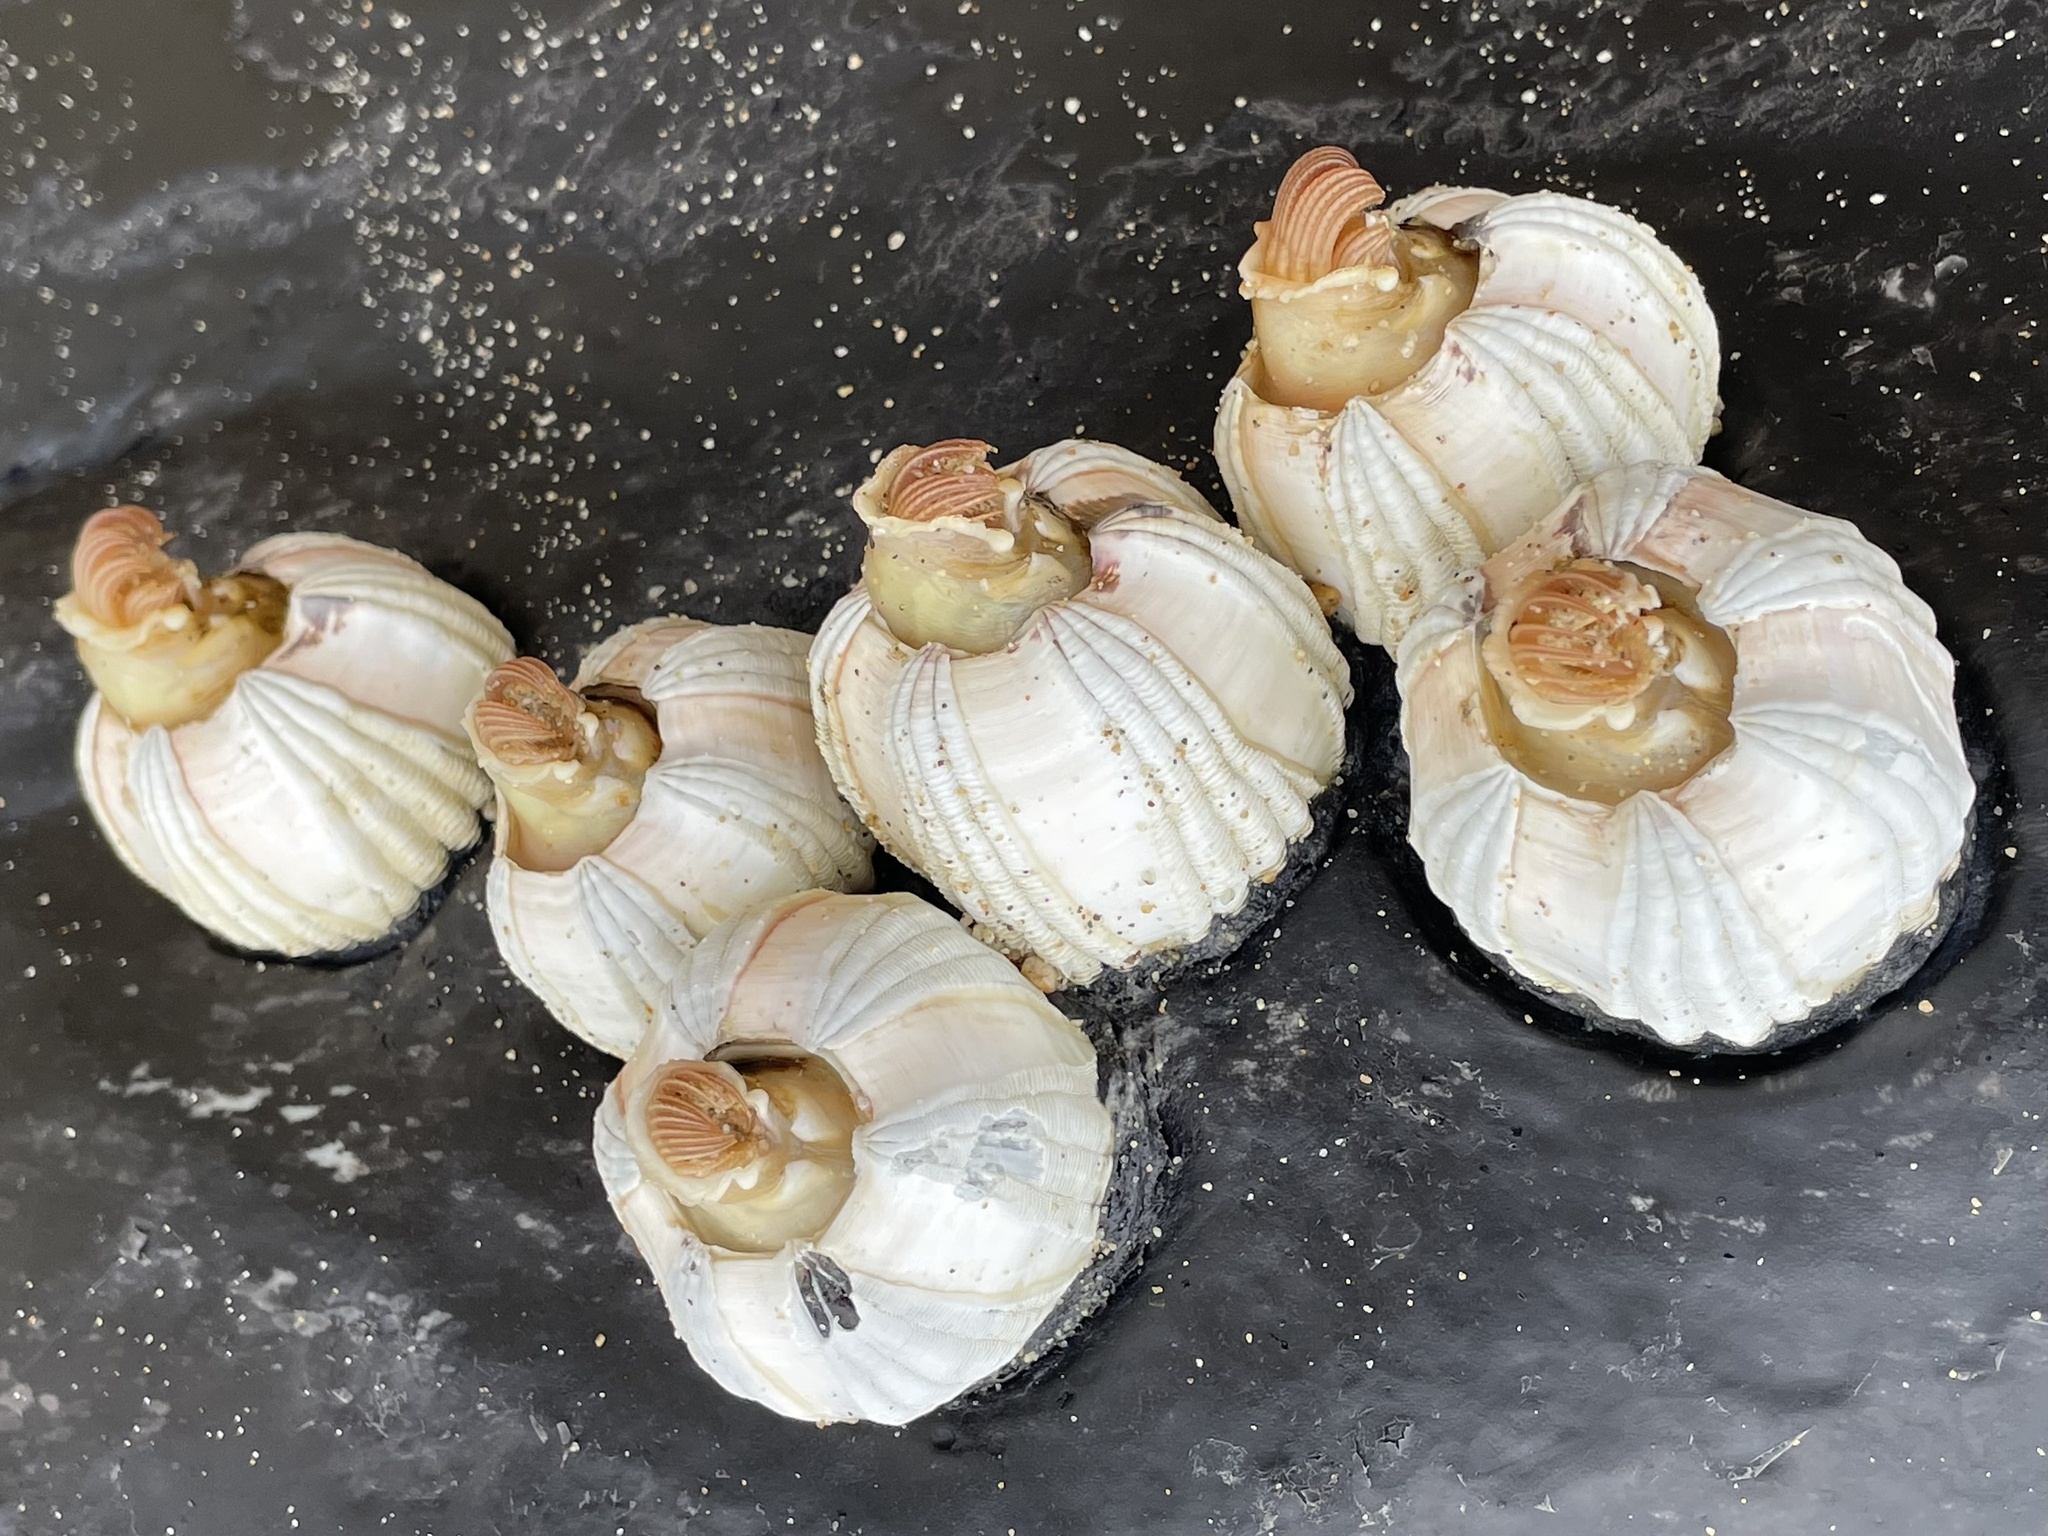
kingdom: Animalia
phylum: Arthropoda
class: Maxillopoda
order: Sessilia
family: Coronulidae
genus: Coronula
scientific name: Coronula diadema
